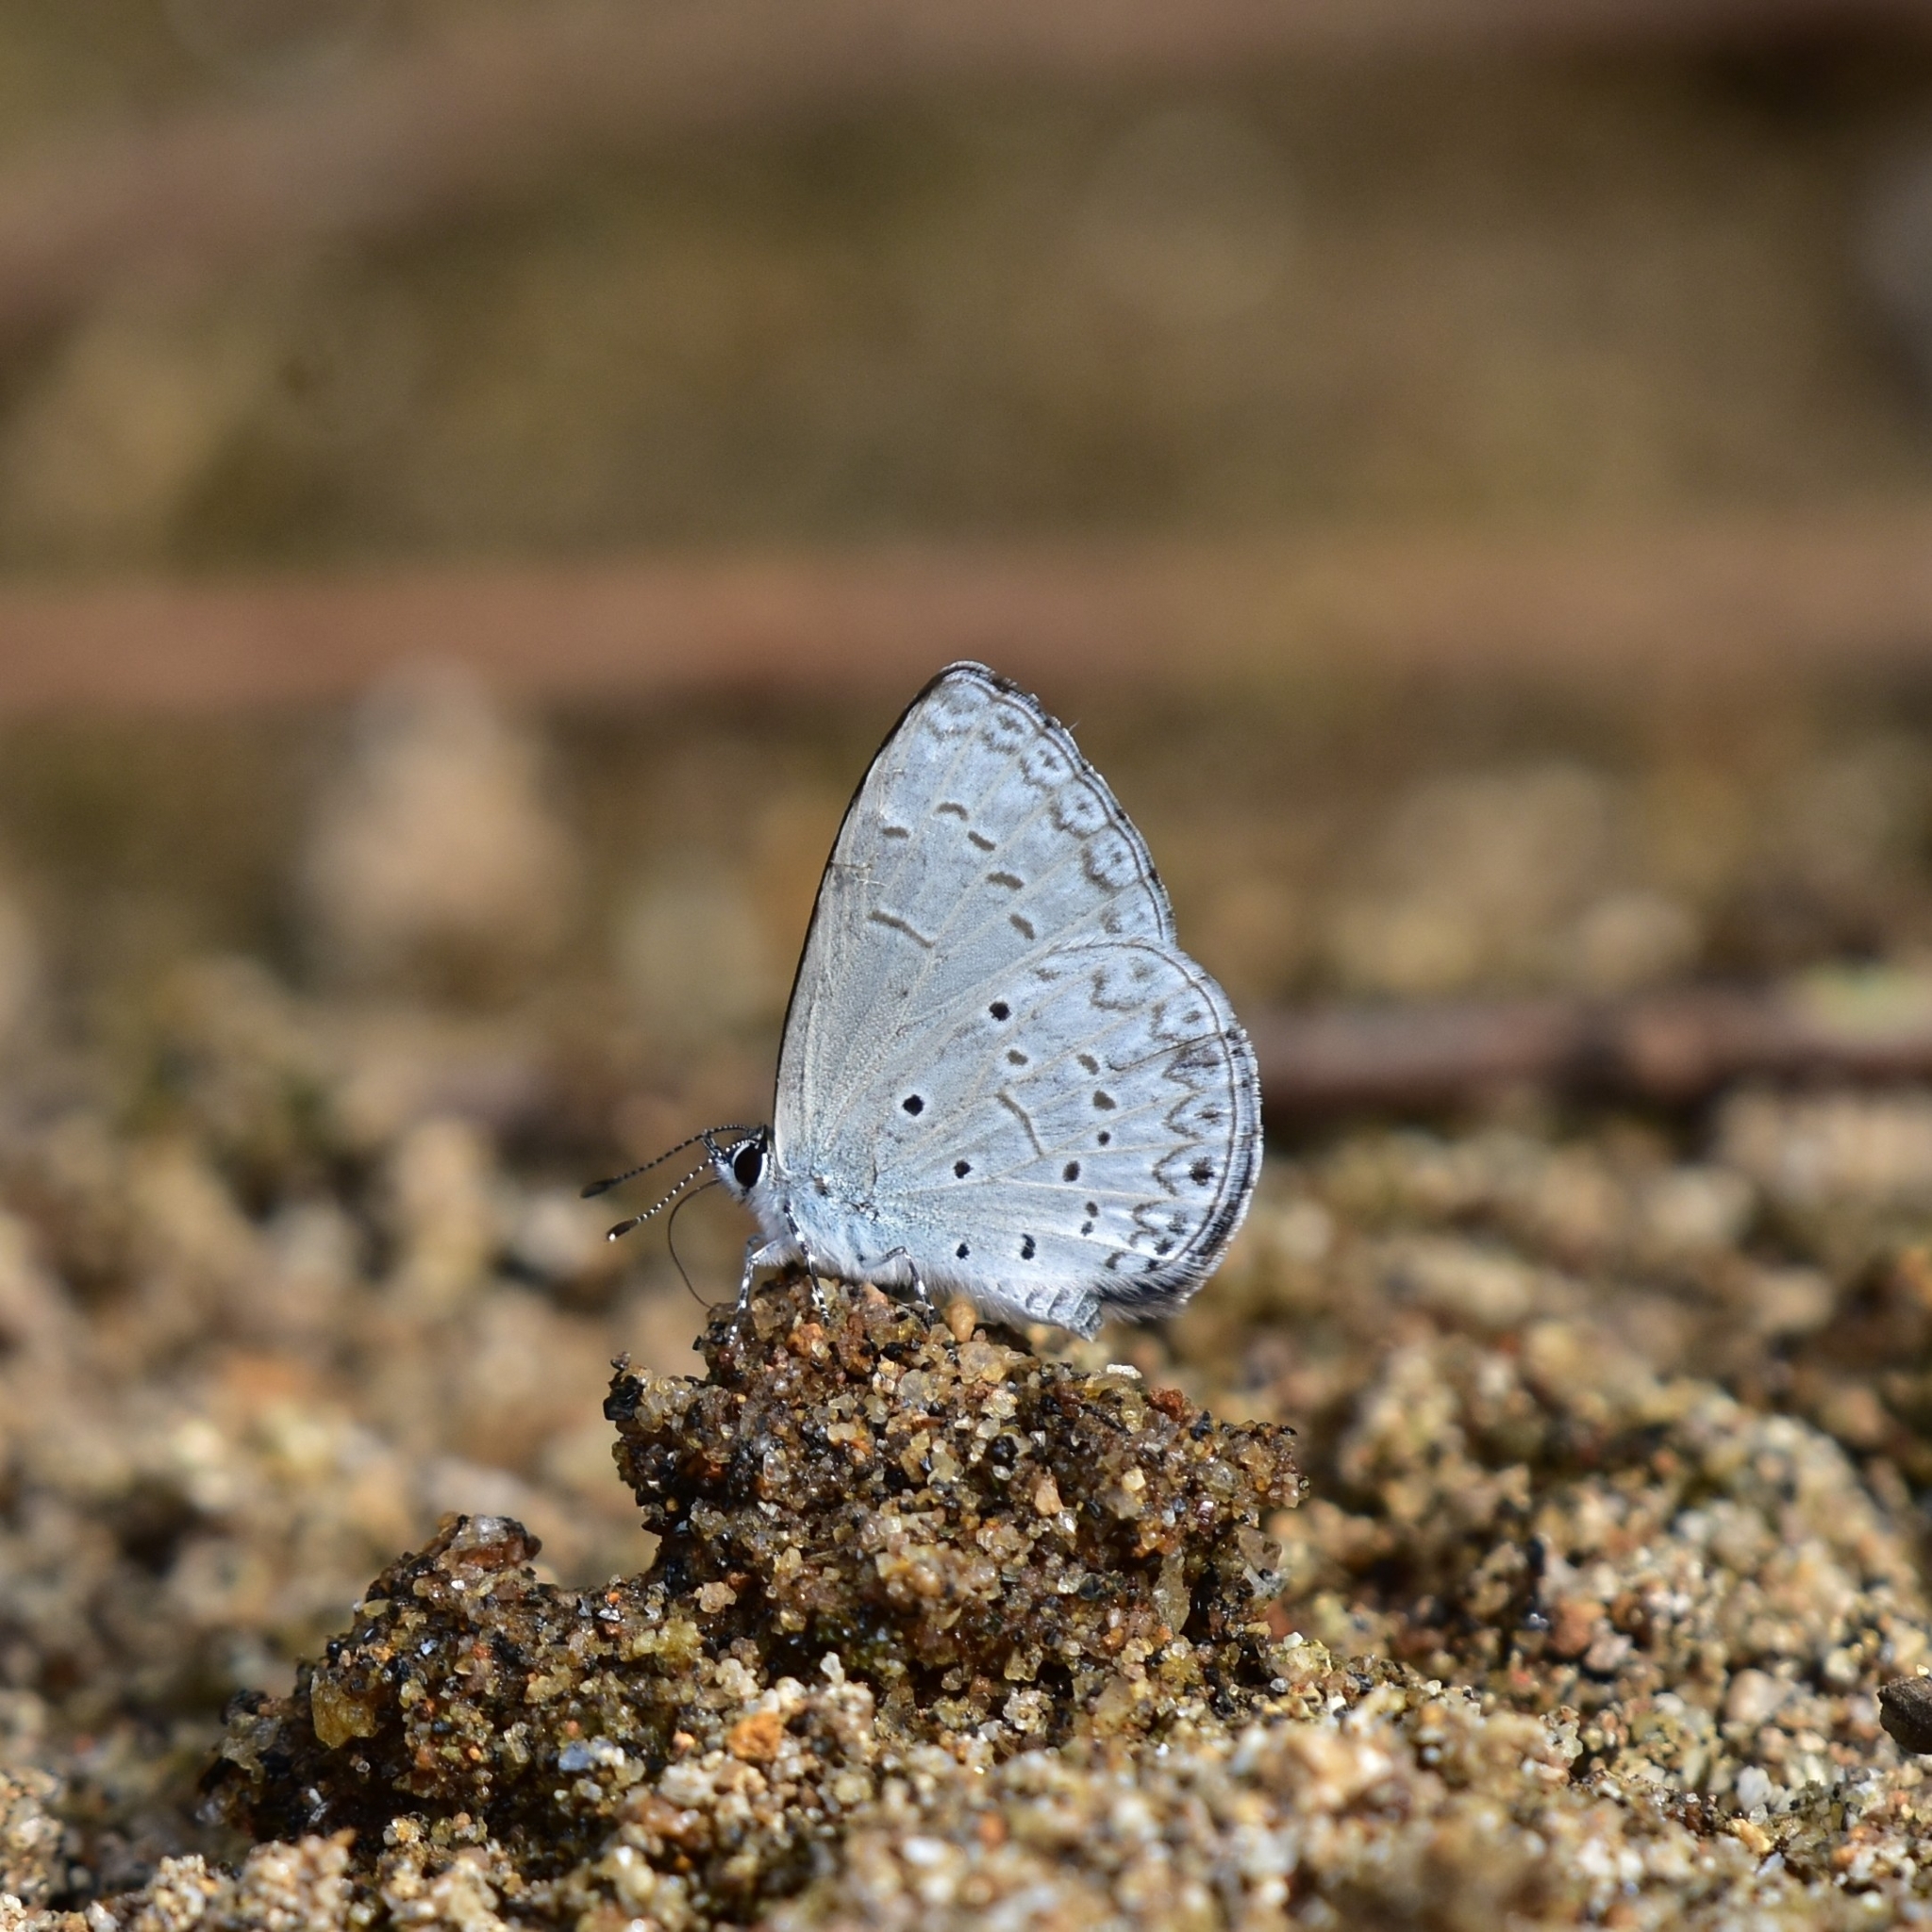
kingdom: Animalia
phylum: Arthropoda
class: Insecta
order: Lepidoptera
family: Lycaenidae
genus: Celastrina
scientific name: Celastrina lavendularis
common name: Plain hedge blue
